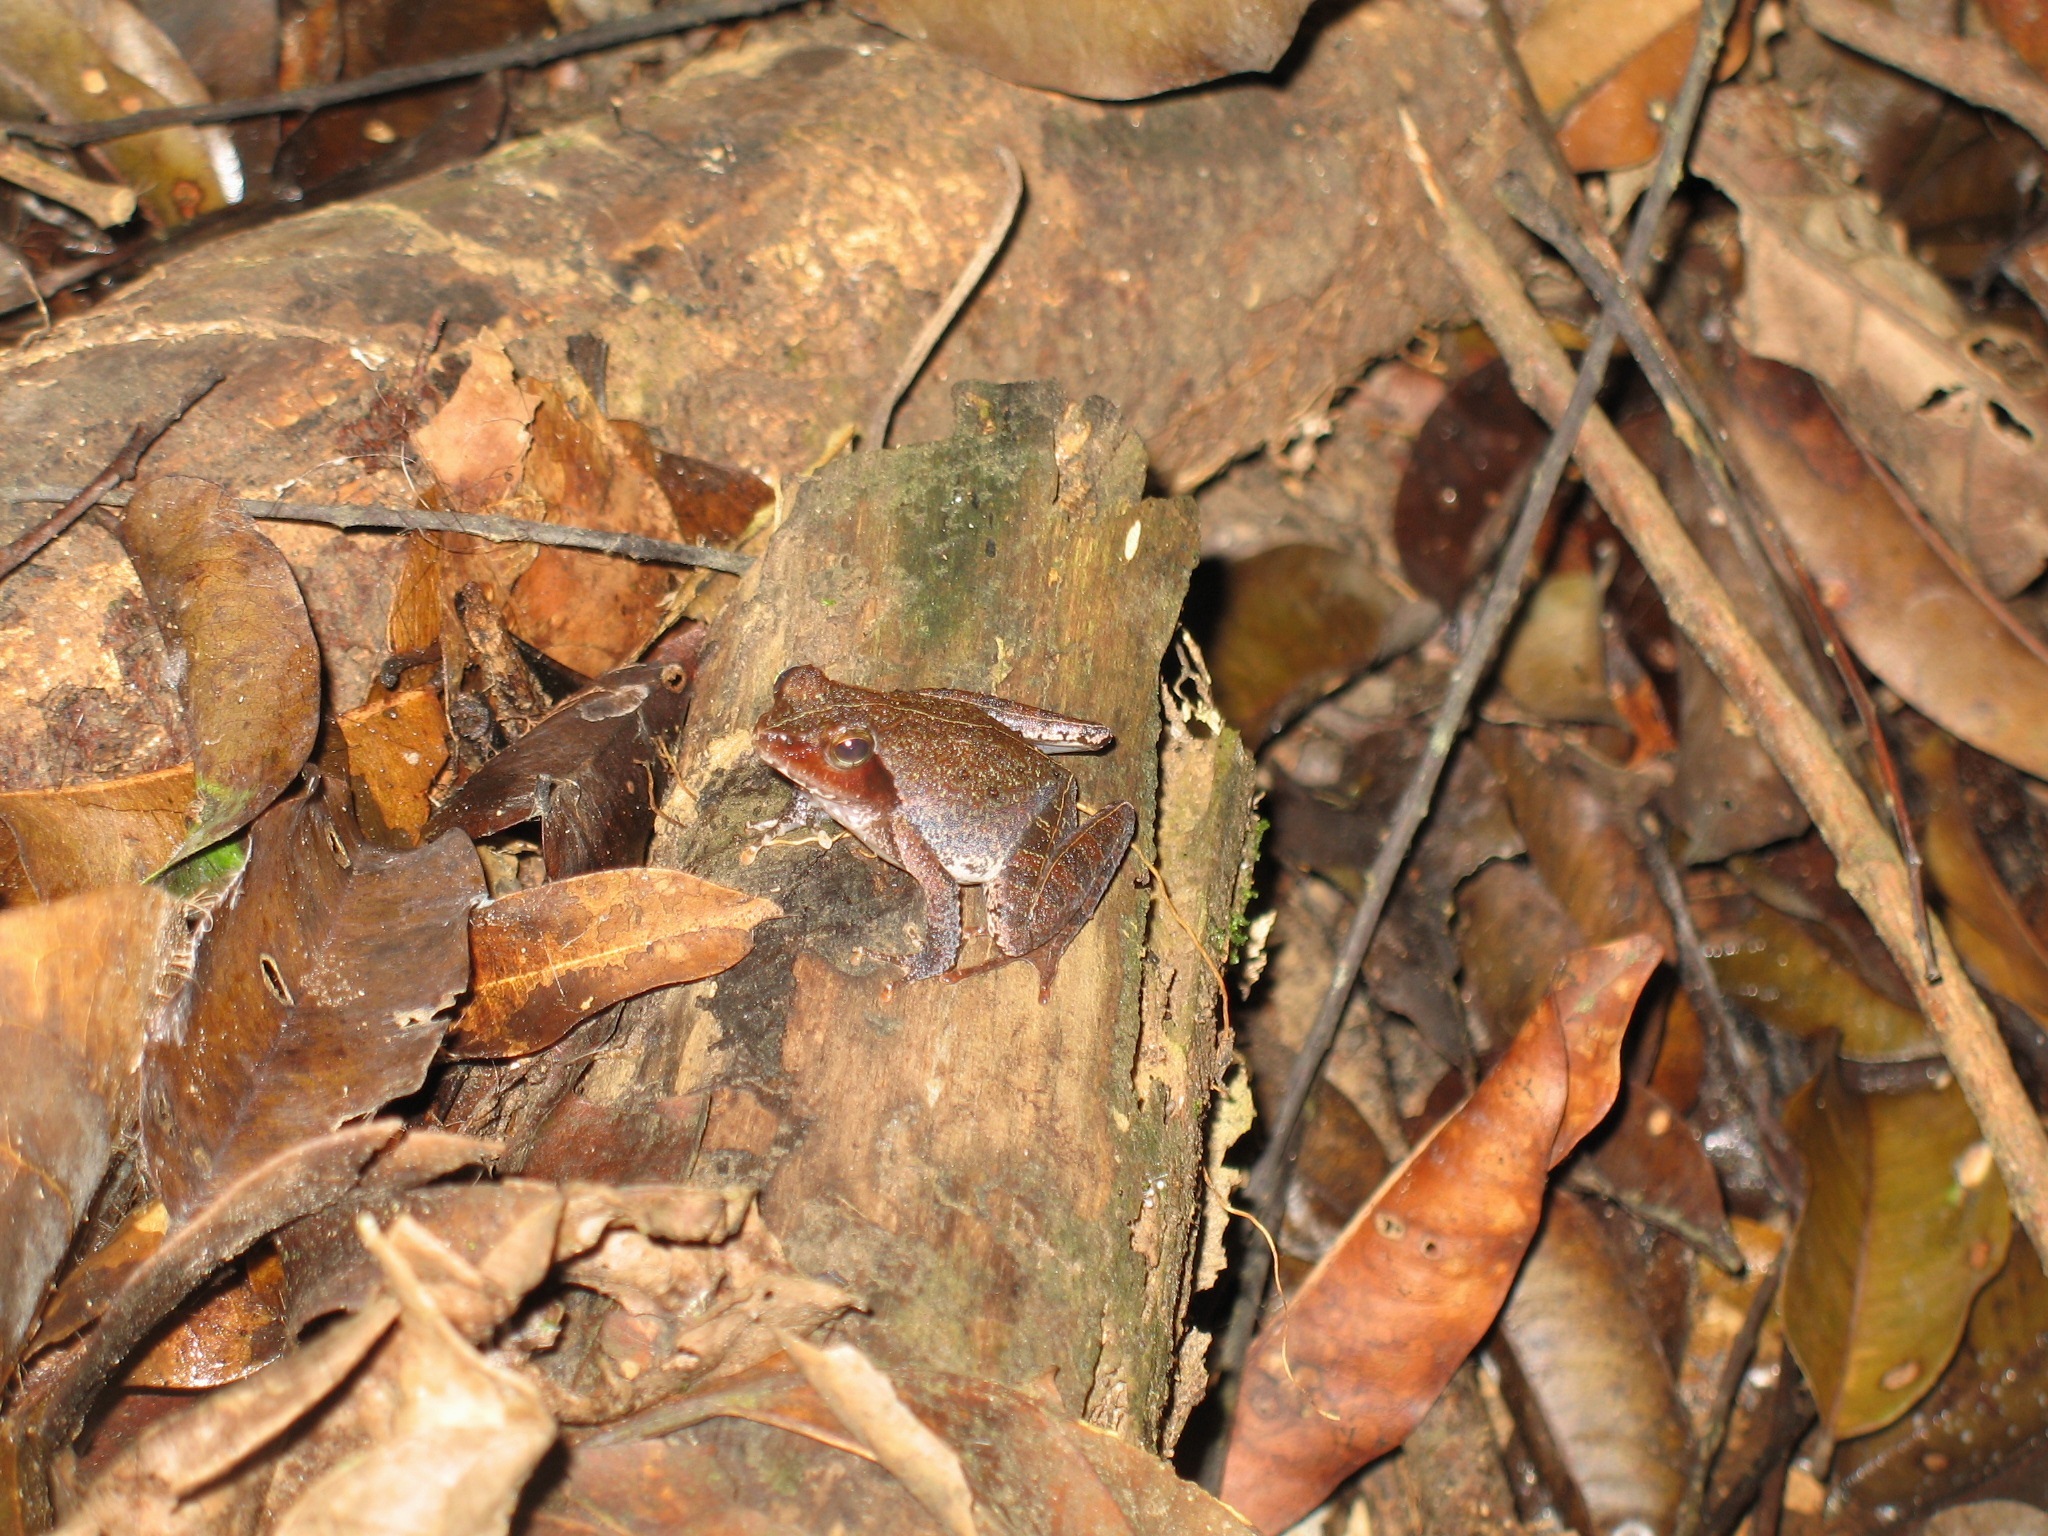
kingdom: Animalia
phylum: Chordata
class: Amphibia
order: Anura
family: Phrynobatrachidae
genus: Phrynobatrachus
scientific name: Phrynobatrachus auritus
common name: Eared river frog
